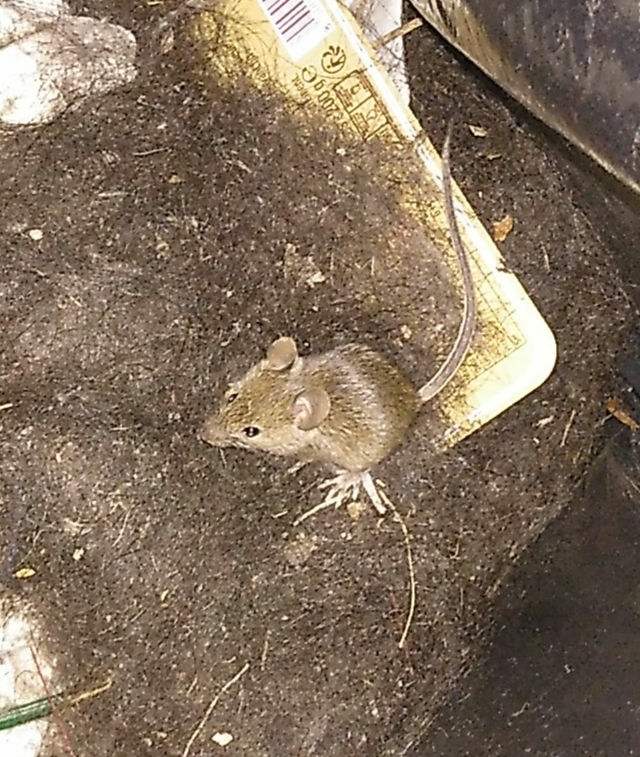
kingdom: Animalia
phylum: Chordata
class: Mammalia
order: Rodentia
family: Muridae
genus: Mus
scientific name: Mus musculus
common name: House mouse
